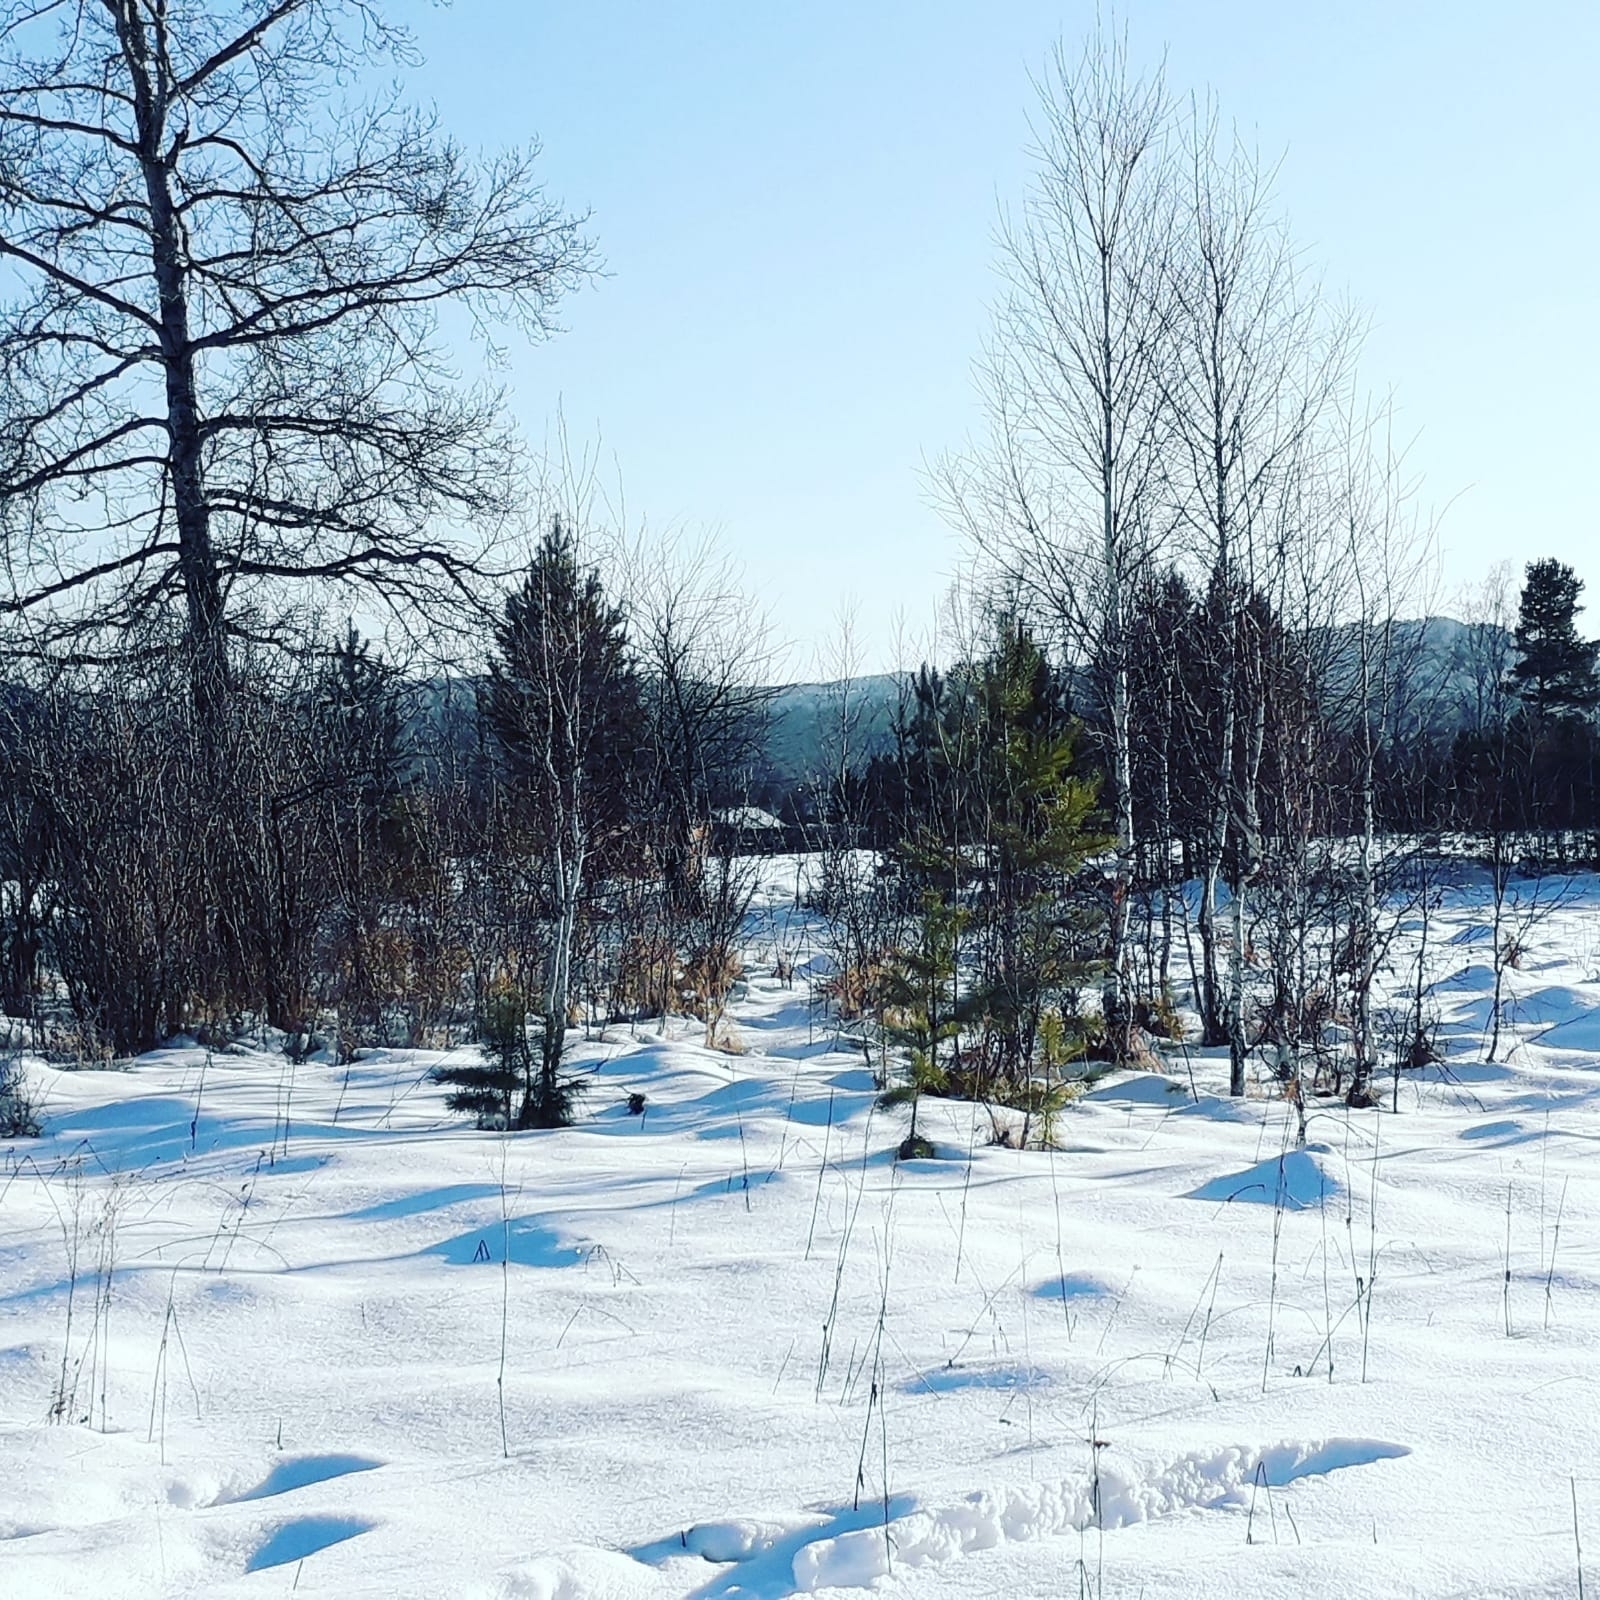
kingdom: Plantae
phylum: Tracheophyta
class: Pinopsida
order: Pinales
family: Pinaceae
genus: Pinus
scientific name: Pinus sylvestris
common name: Scots pine
